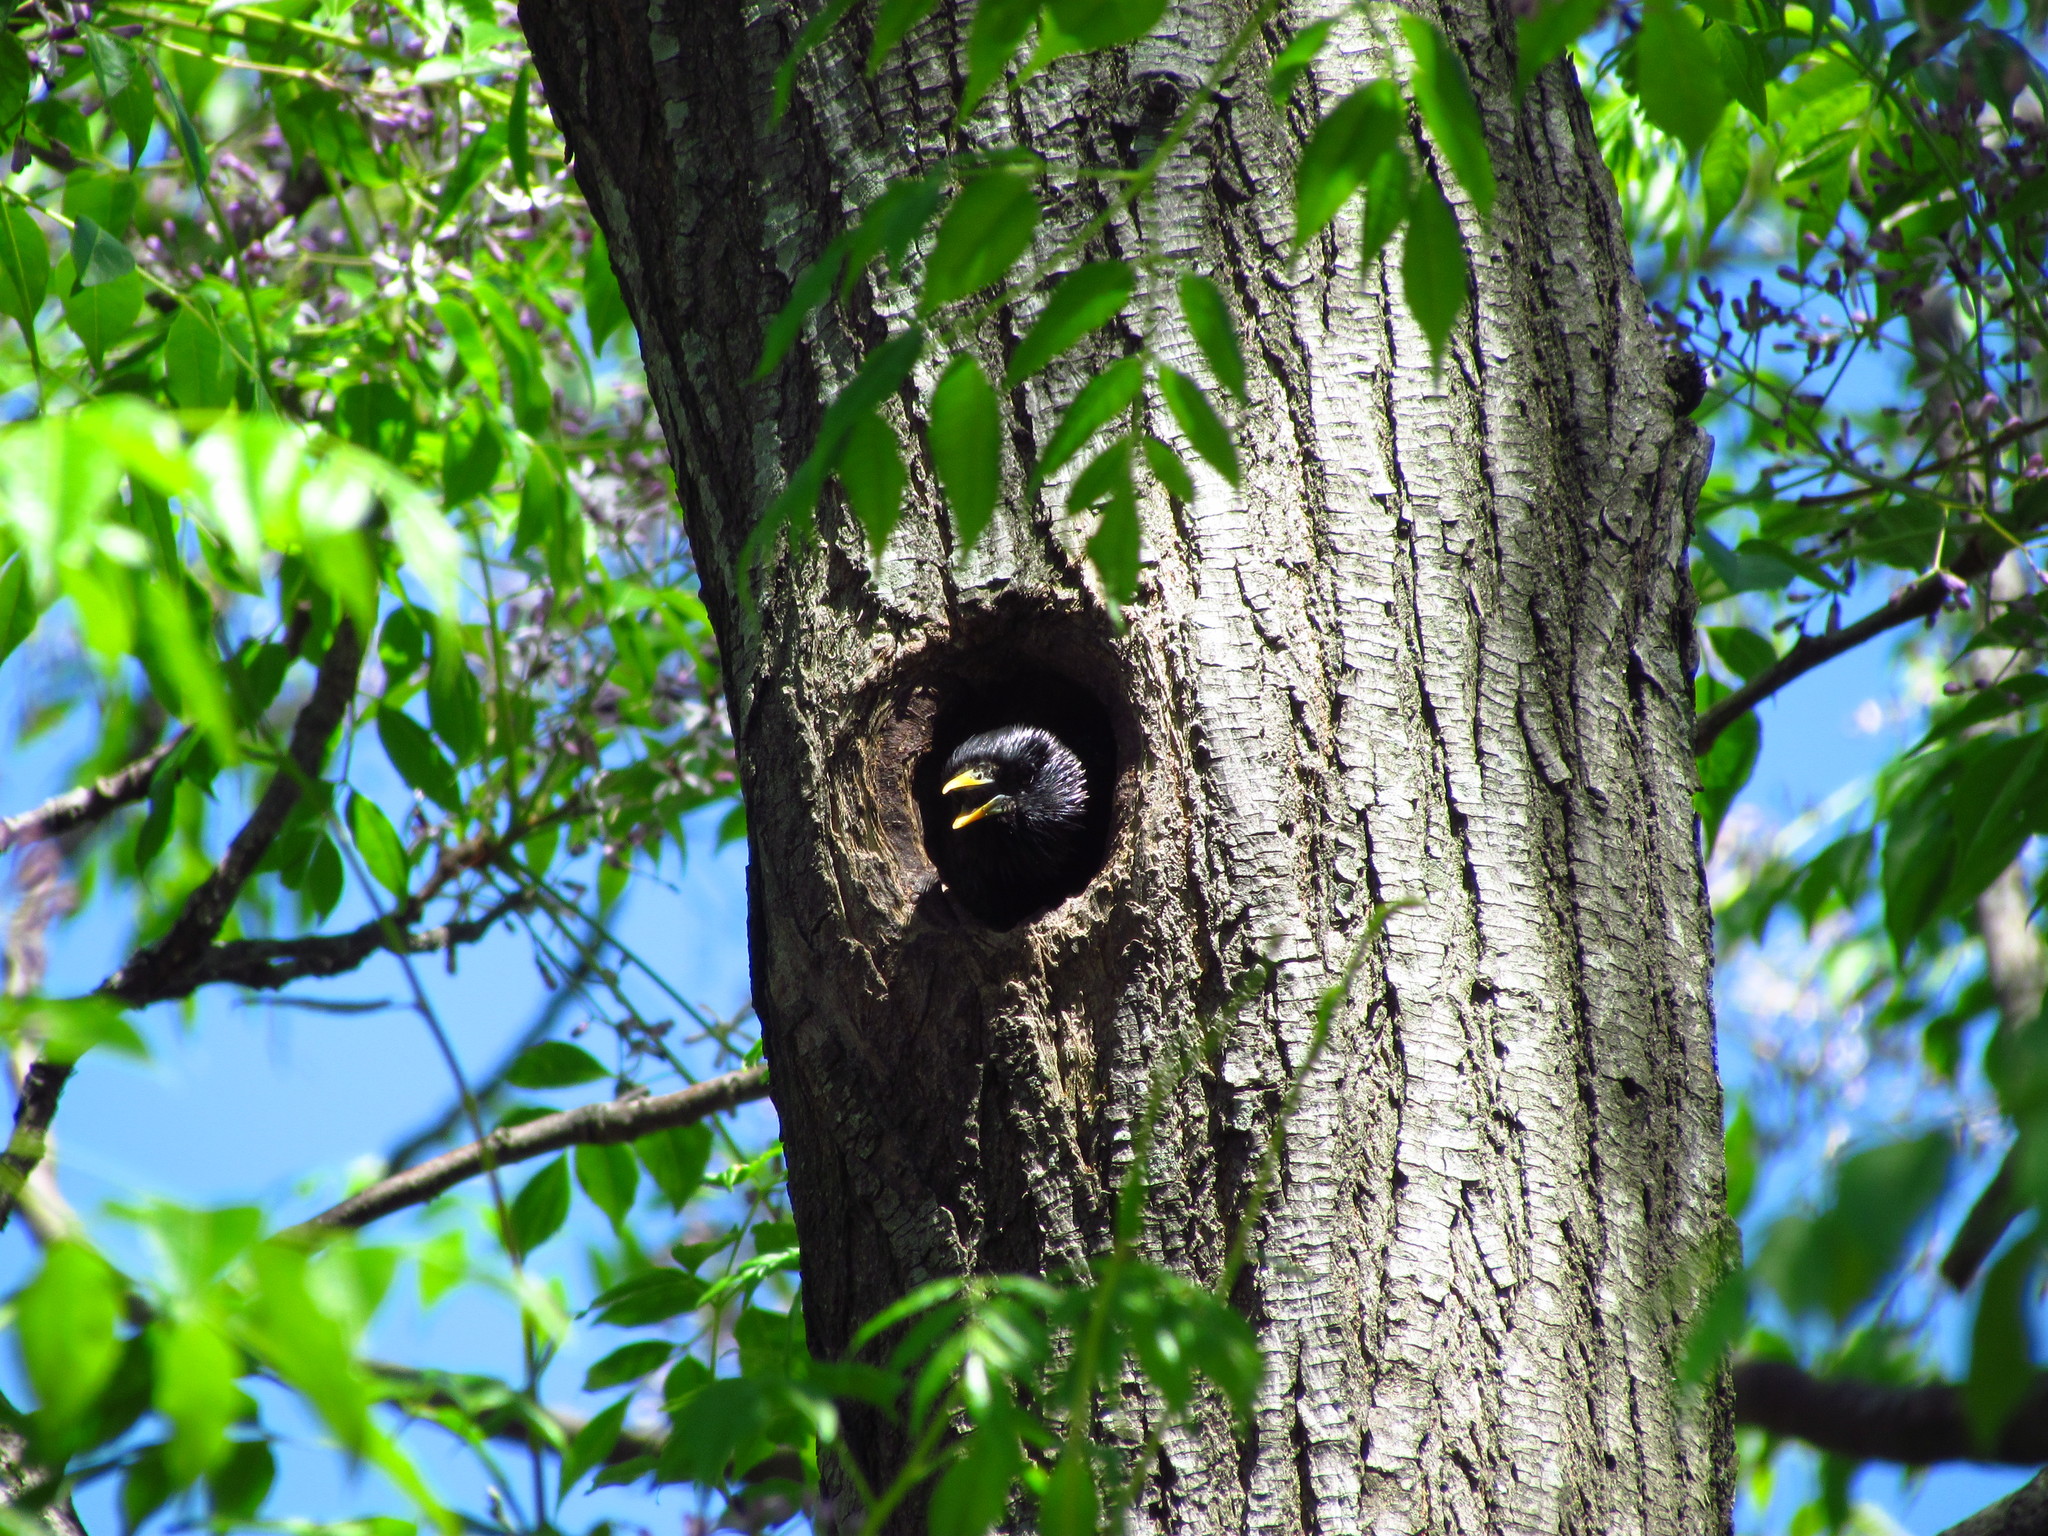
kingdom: Animalia
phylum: Chordata
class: Aves
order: Passeriformes
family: Sturnidae
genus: Sturnus
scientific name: Sturnus vulgaris
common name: Common starling
